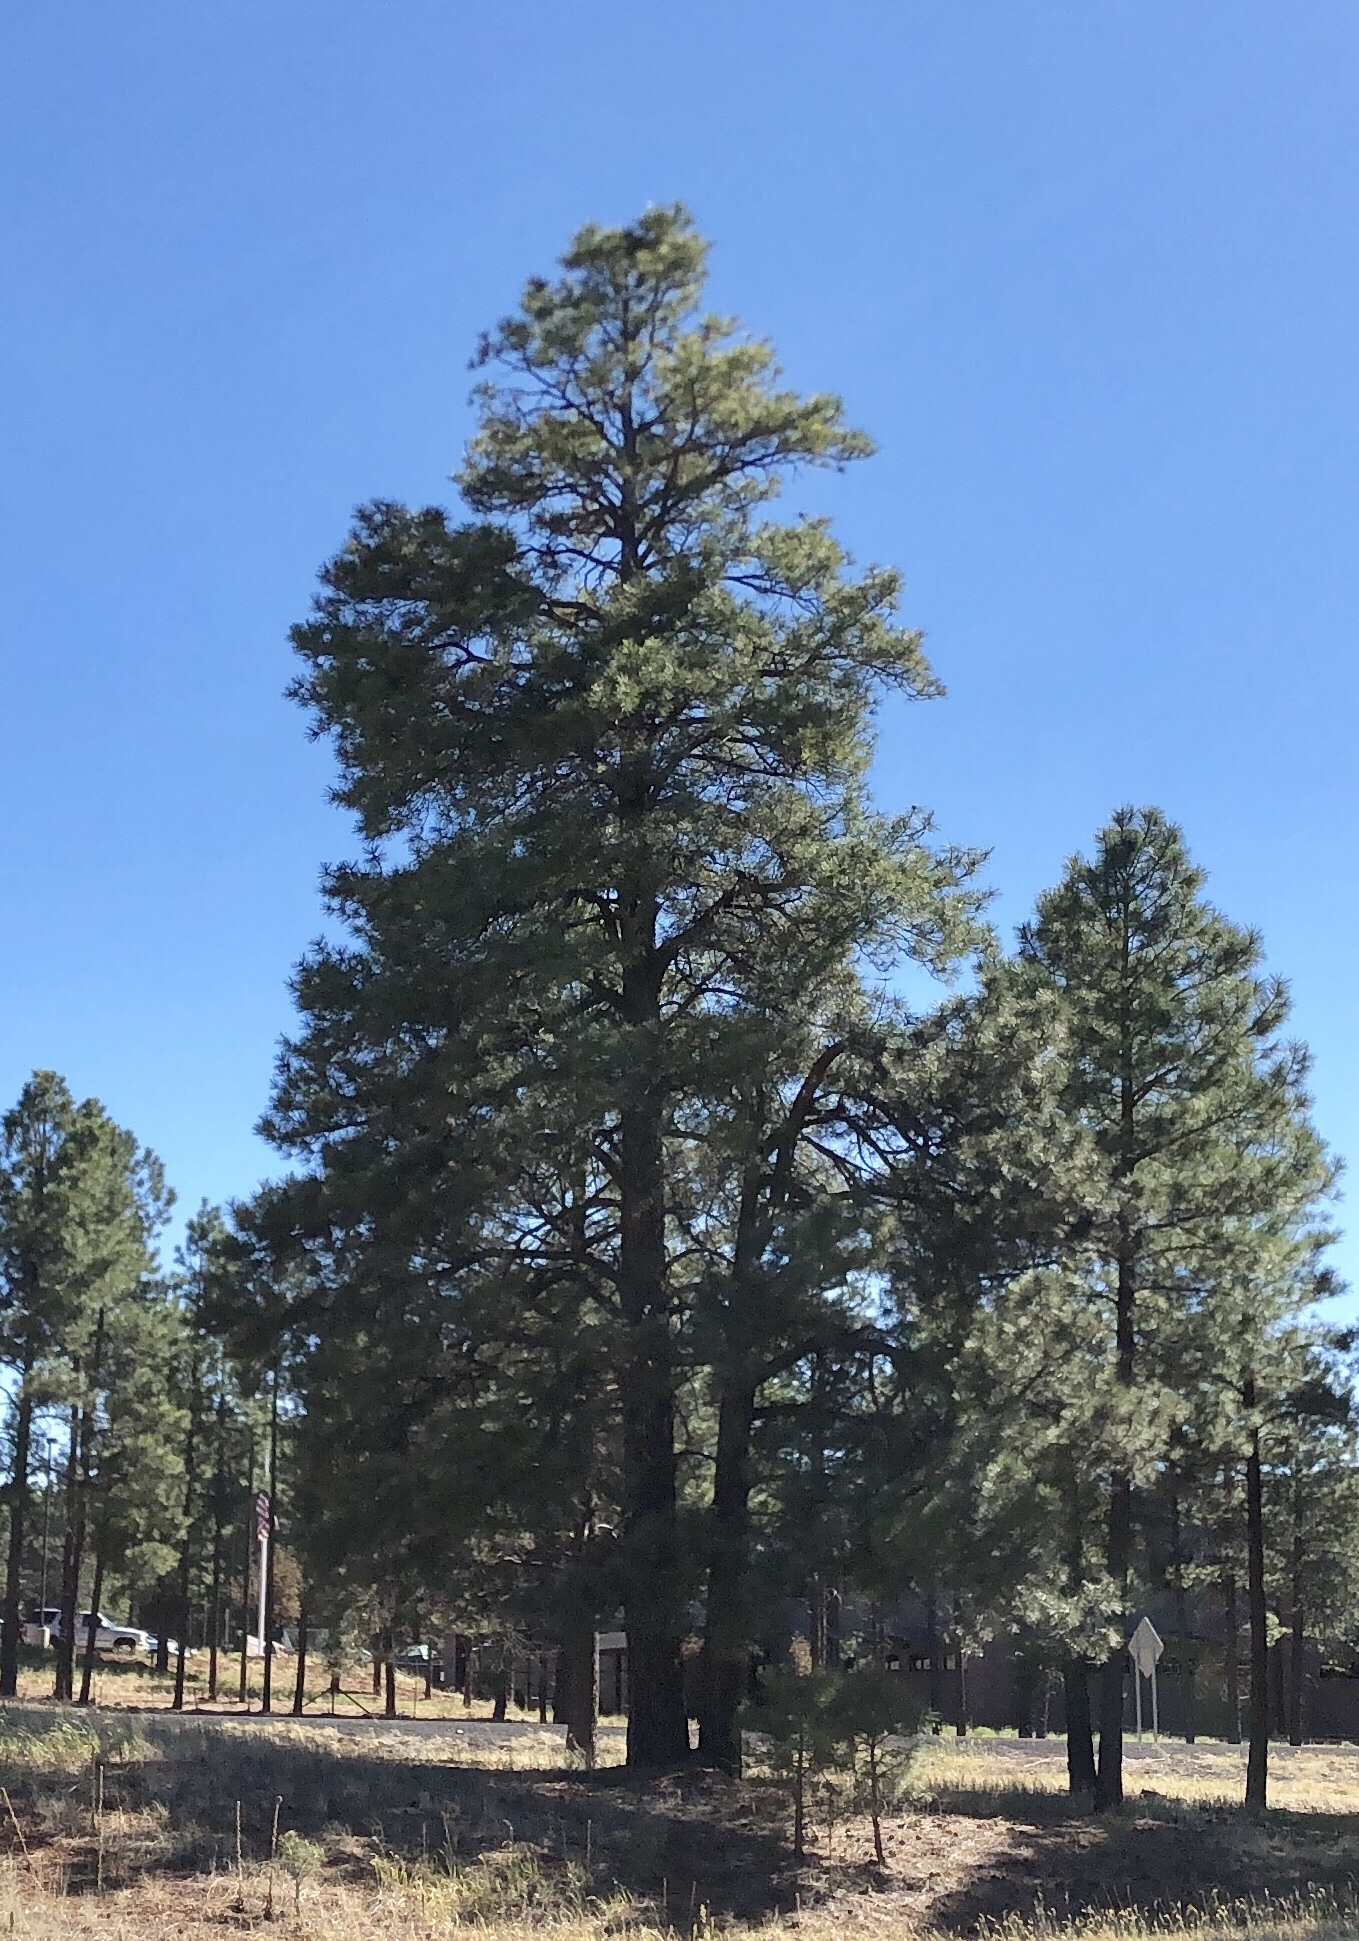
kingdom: Plantae
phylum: Tracheophyta
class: Pinopsida
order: Pinales
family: Pinaceae
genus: Pinus
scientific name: Pinus ponderosa
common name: Western yellow-pine
